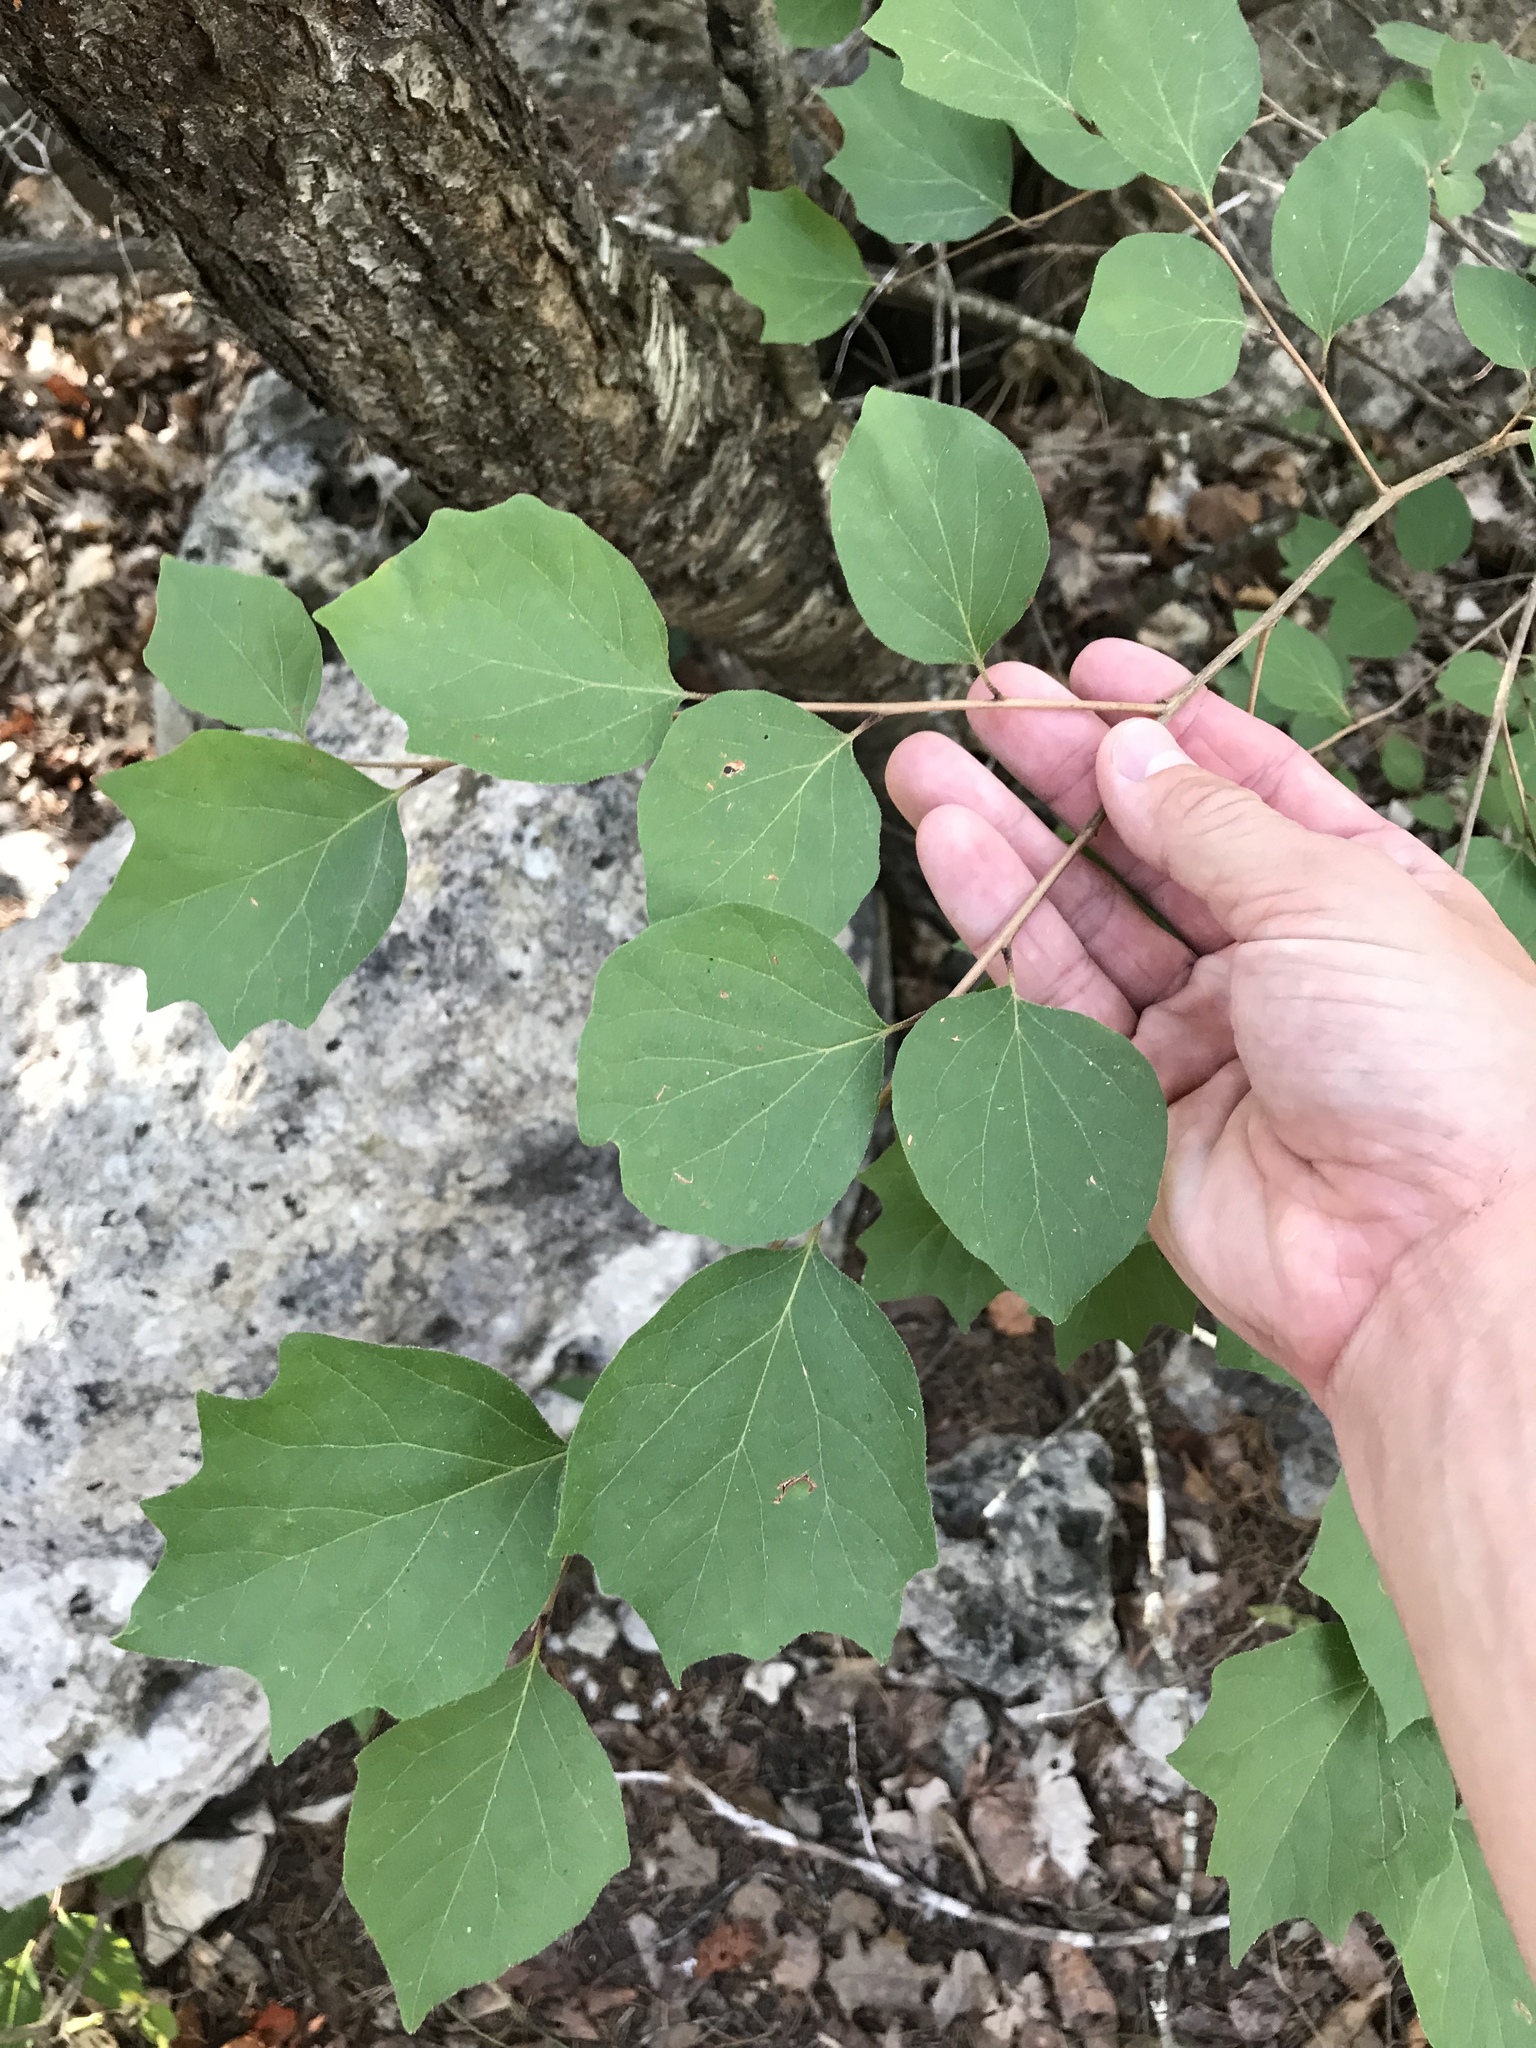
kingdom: Plantae
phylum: Tracheophyta
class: Magnoliopsida
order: Ericales
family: Styracaceae
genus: Styrax
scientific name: Styrax platanifolius
